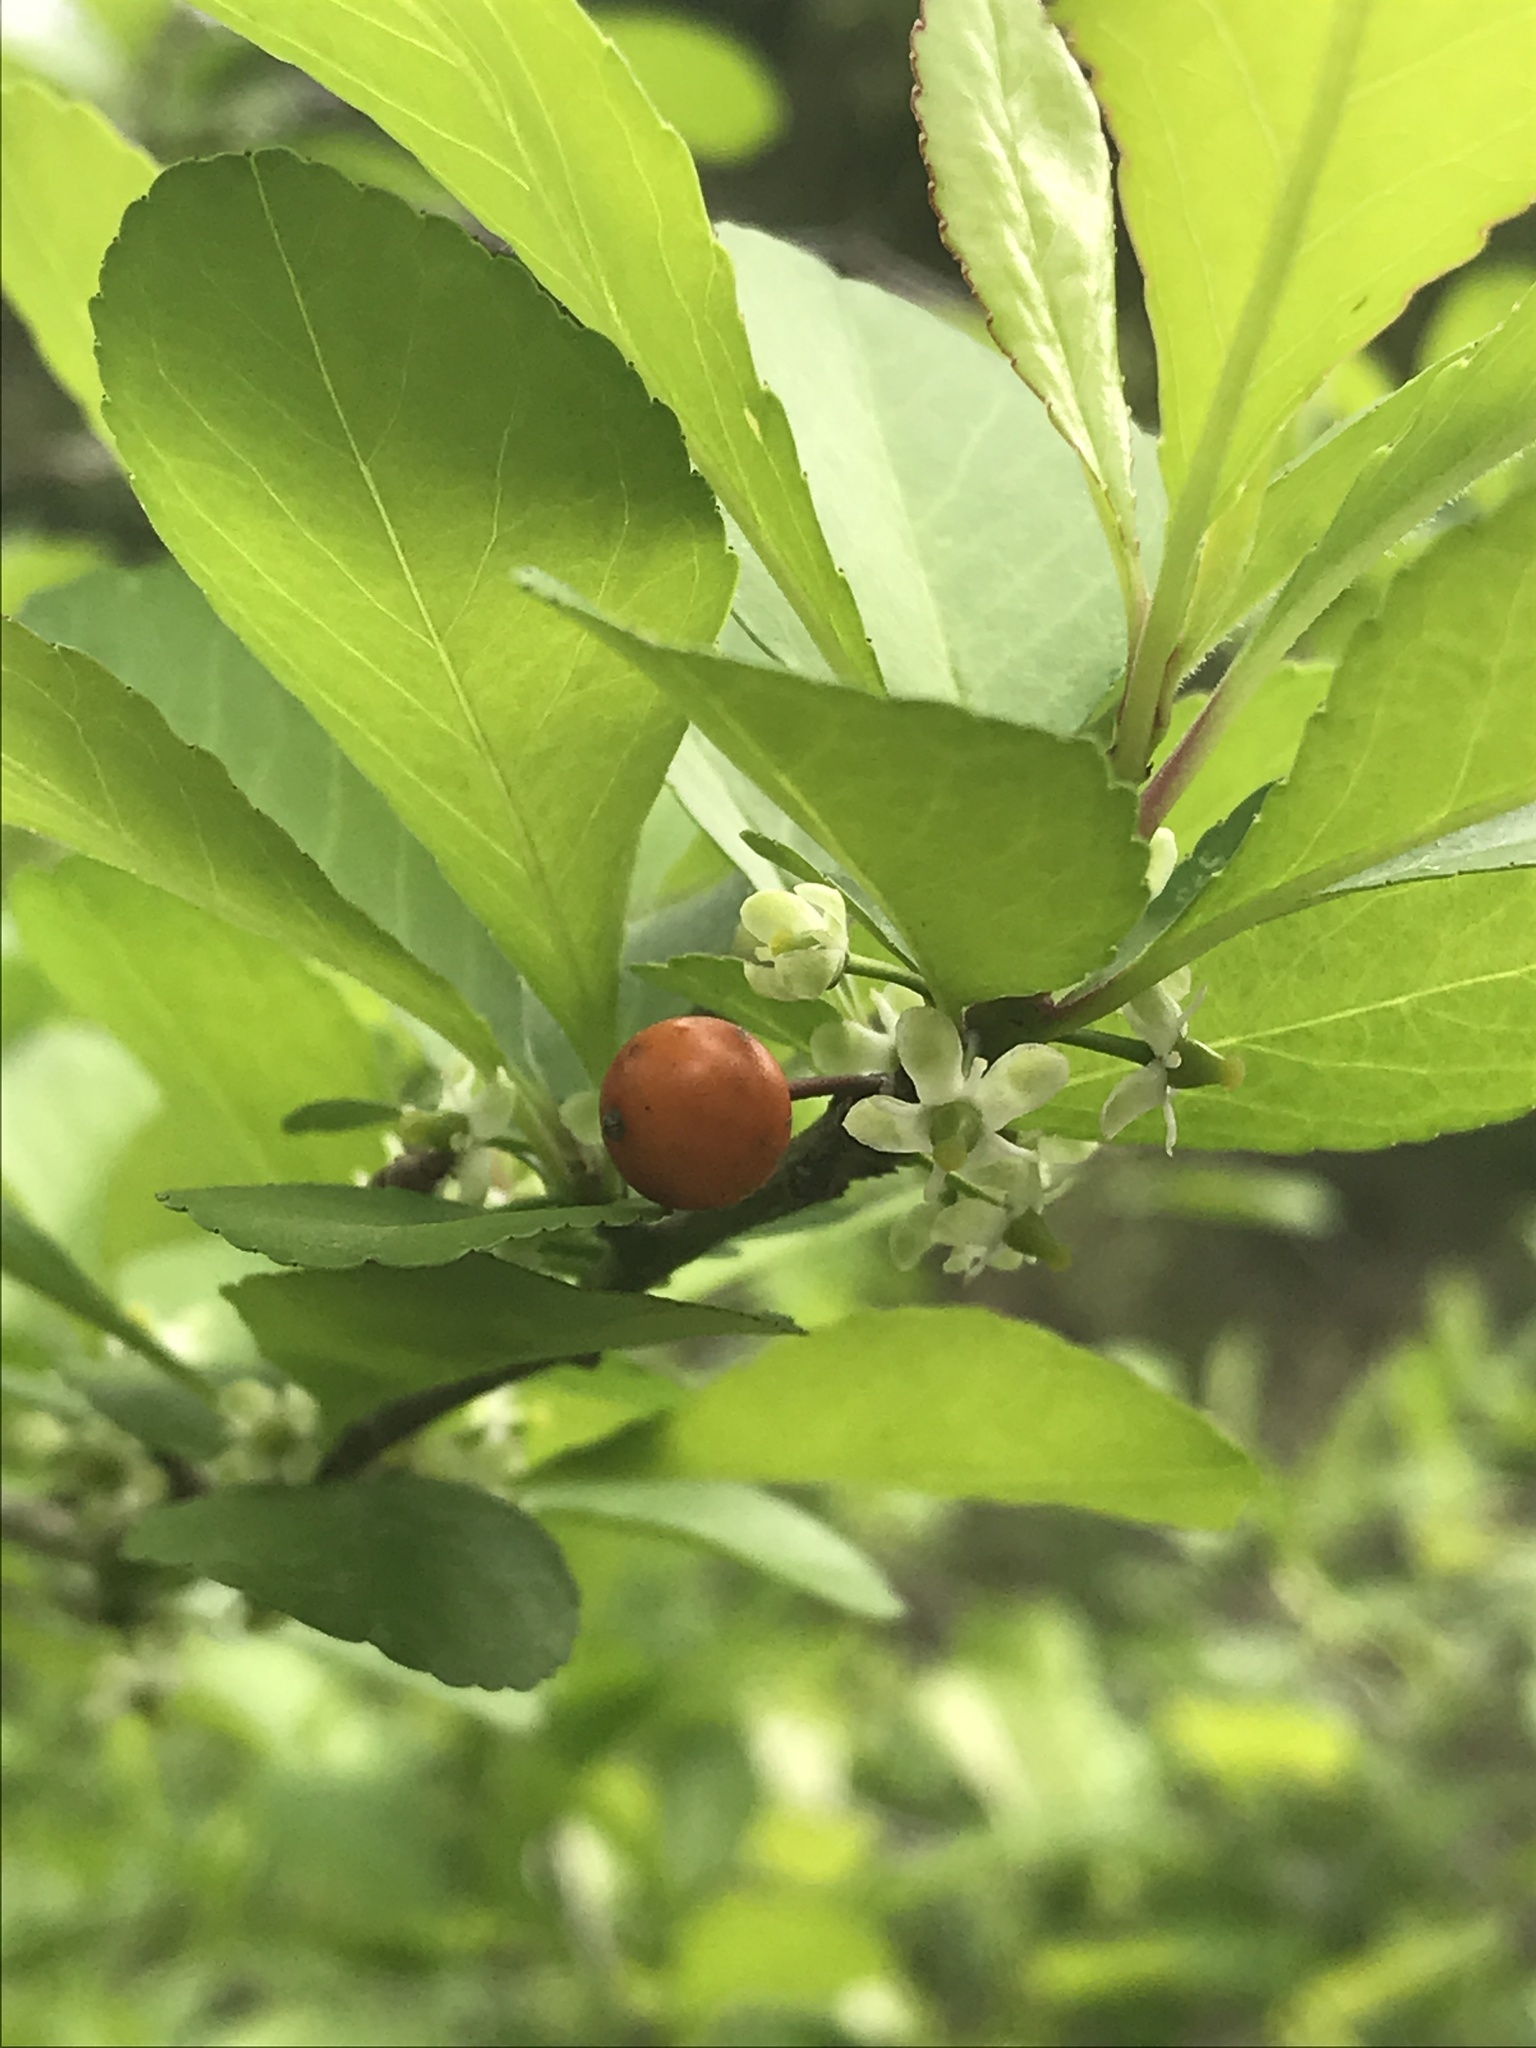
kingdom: Plantae
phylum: Tracheophyta
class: Magnoliopsida
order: Aquifoliales
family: Aquifoliaceae
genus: Ilex
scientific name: Ilex decidua
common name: Possum-haw
